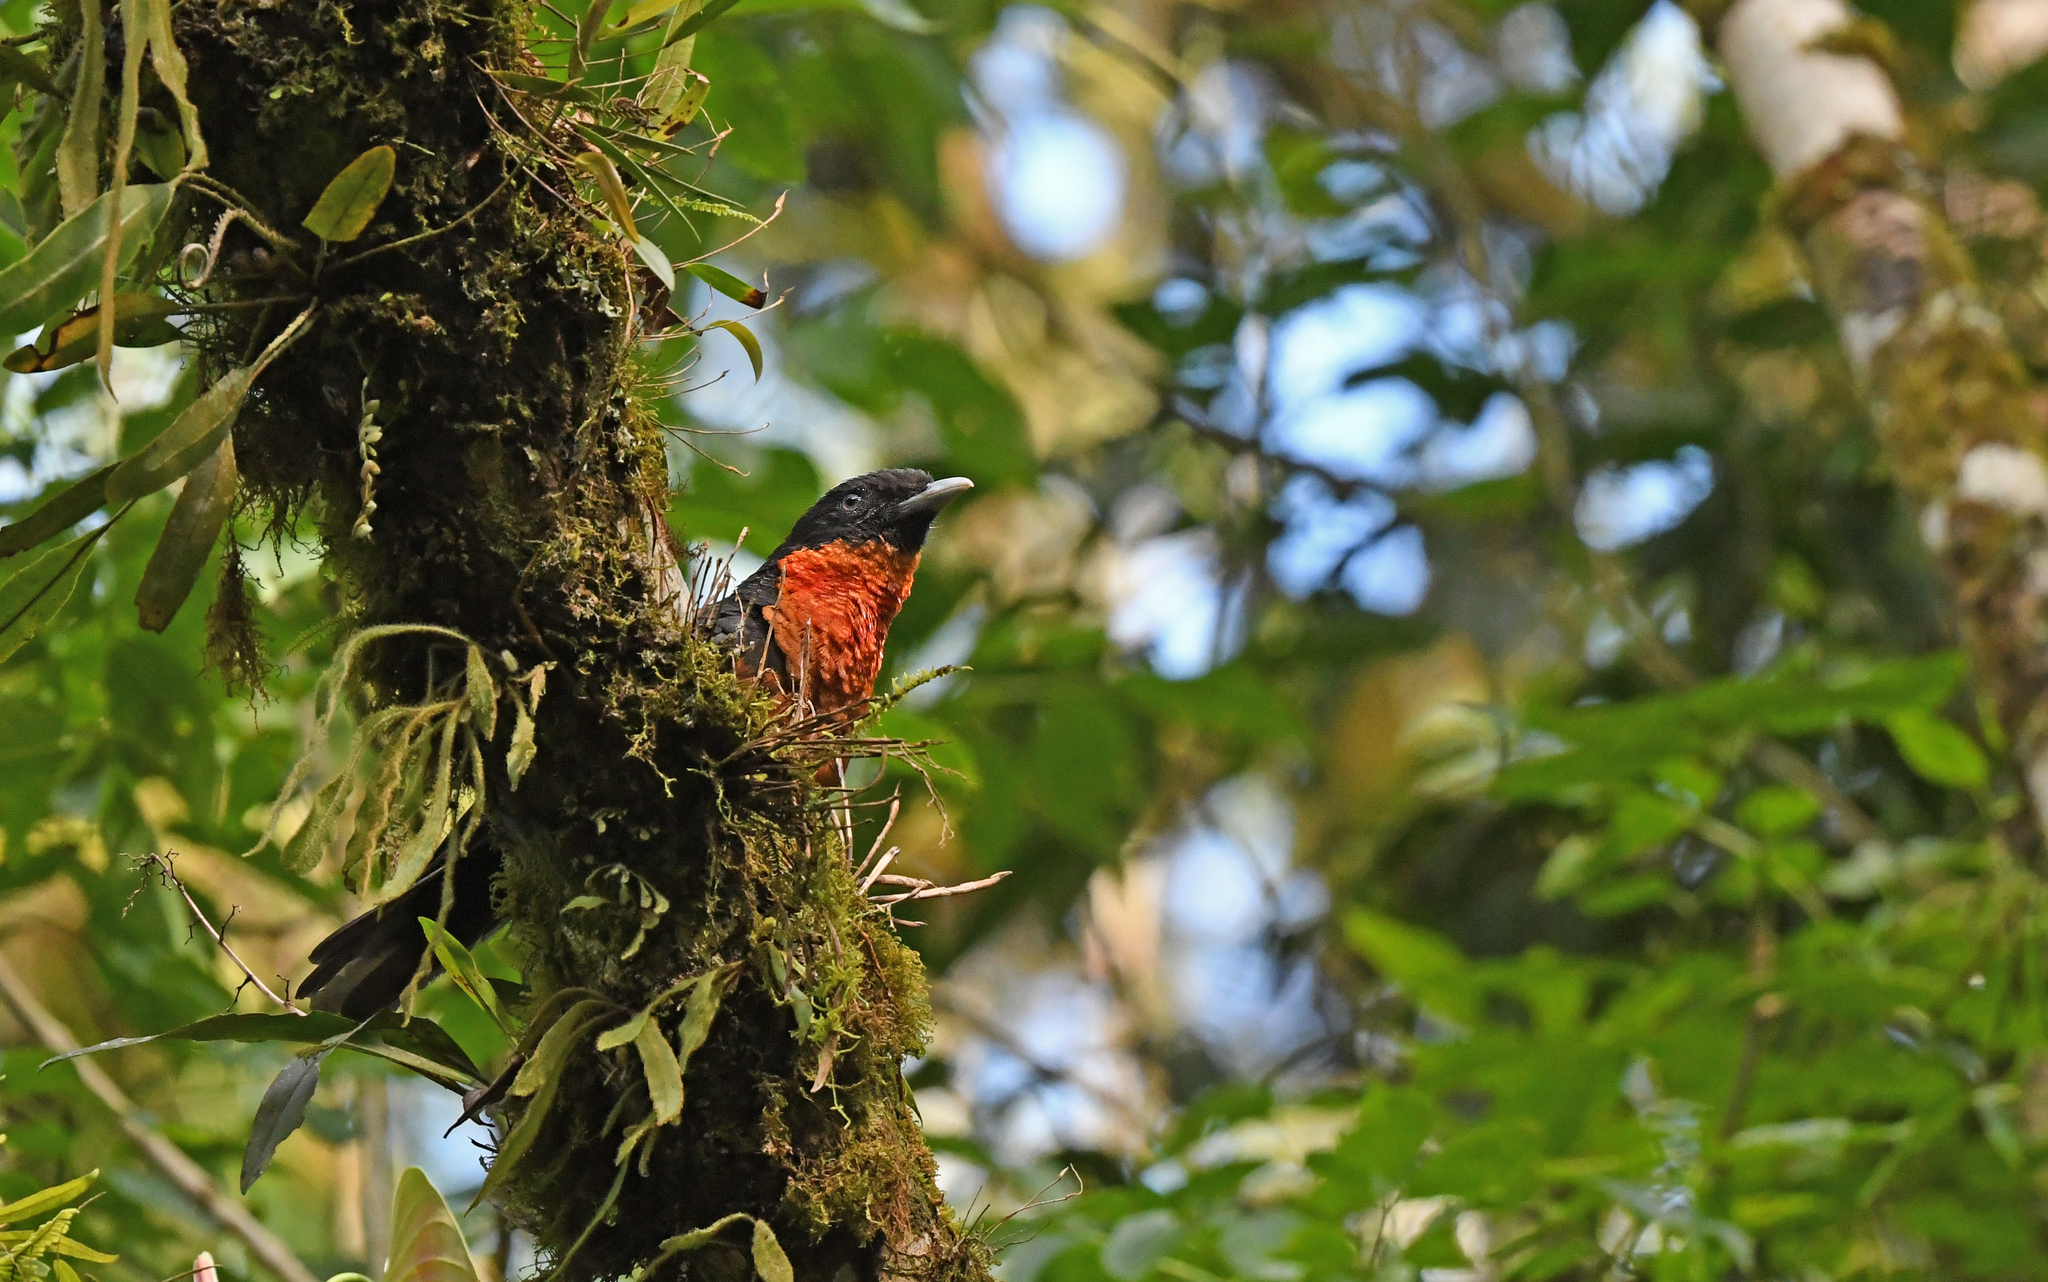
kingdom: Animalia
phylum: Chordata
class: Aves
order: Passeriformes
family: Cotingidae
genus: Pyroderus
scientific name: Pyroderus scutatus
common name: Red-ruffed fruitcrow
